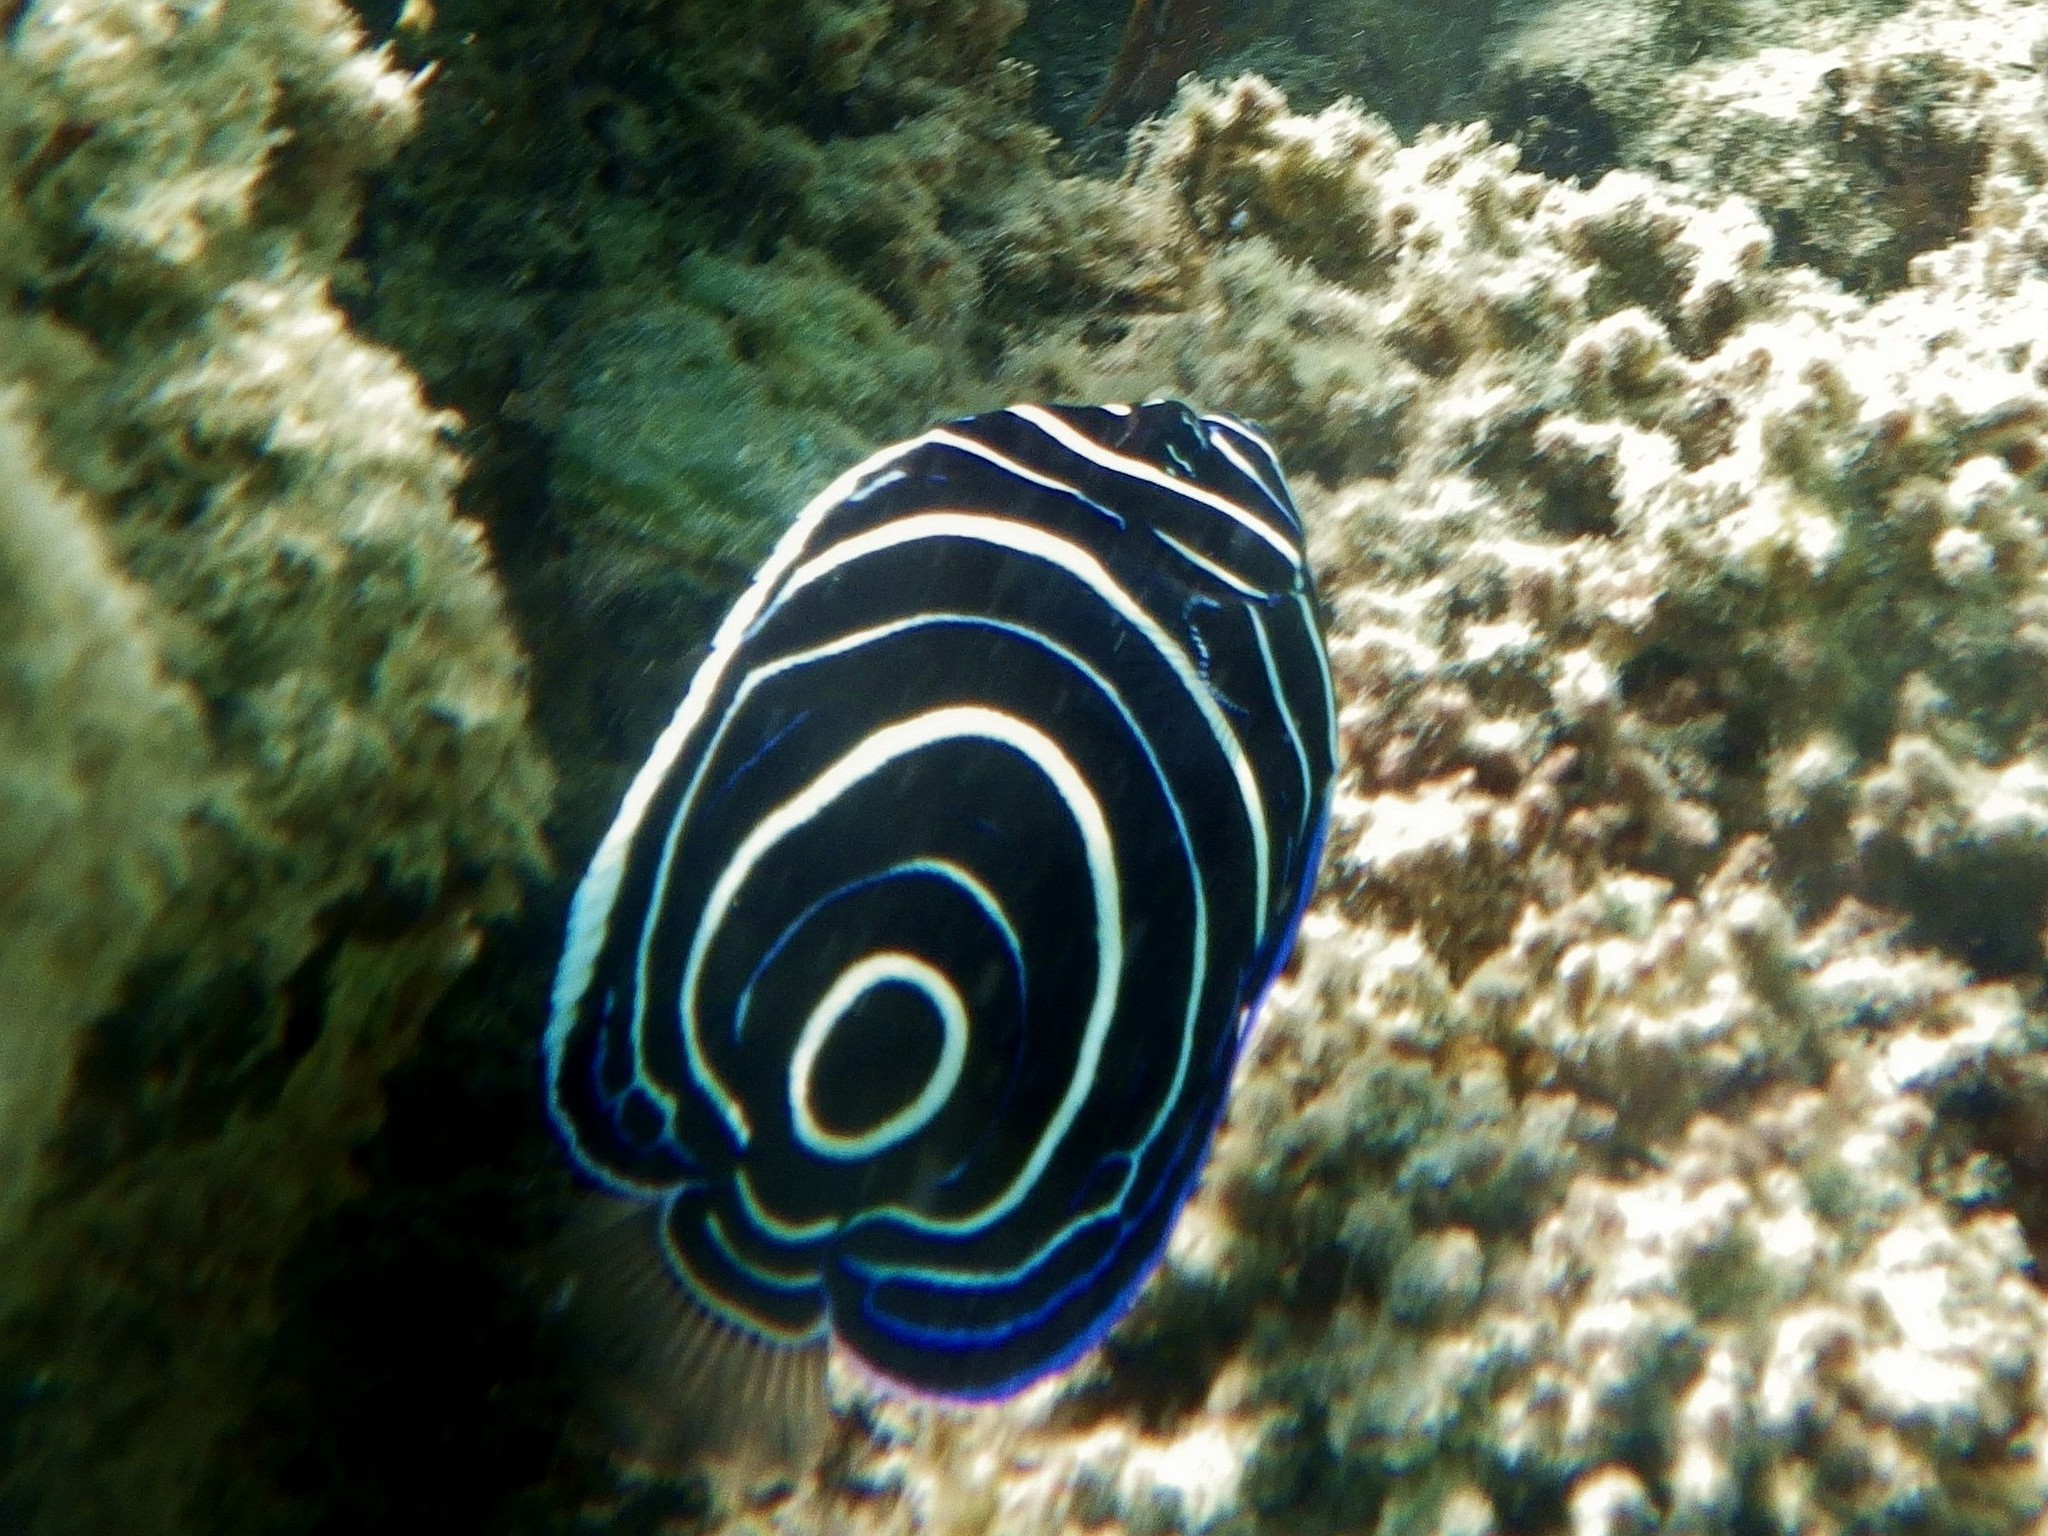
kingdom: Animalia
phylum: Chordata
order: Perciformes
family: Pomacanthidae
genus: Pomacanthus
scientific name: Pomacanthus imperator
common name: Emperor angelfish
